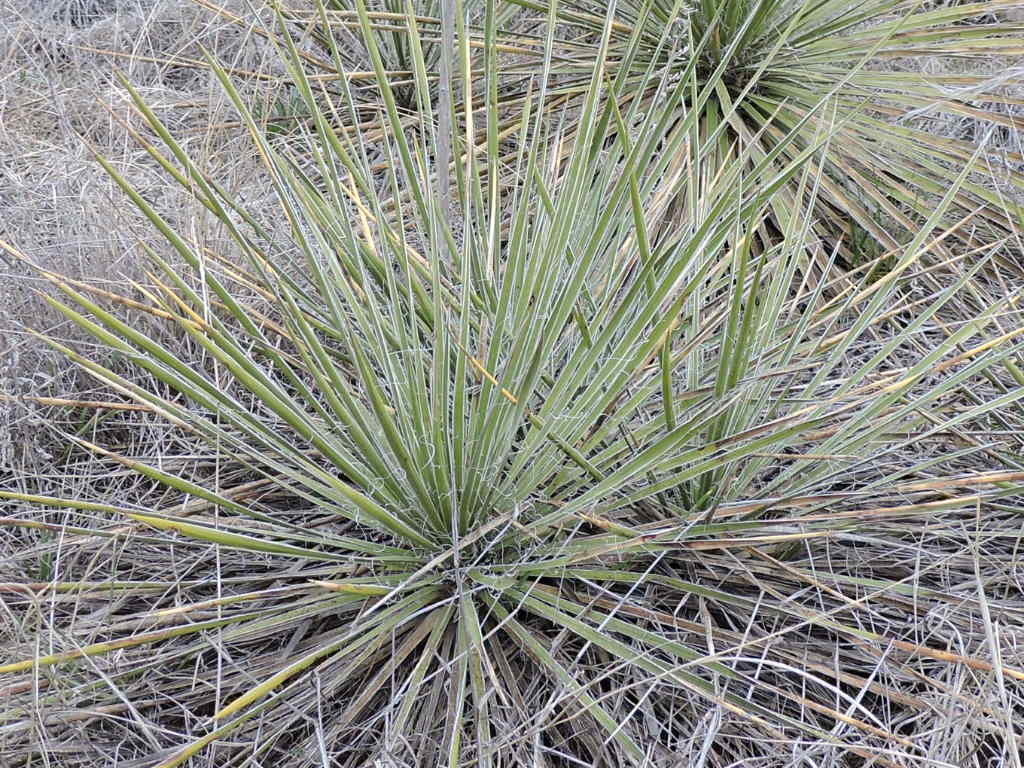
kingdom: Plantae
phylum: Tracheophyta
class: Liliopsida
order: Asparagales
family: Asparagaceae
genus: Yucca
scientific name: Yucca arkansana
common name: Arkansas yucca
